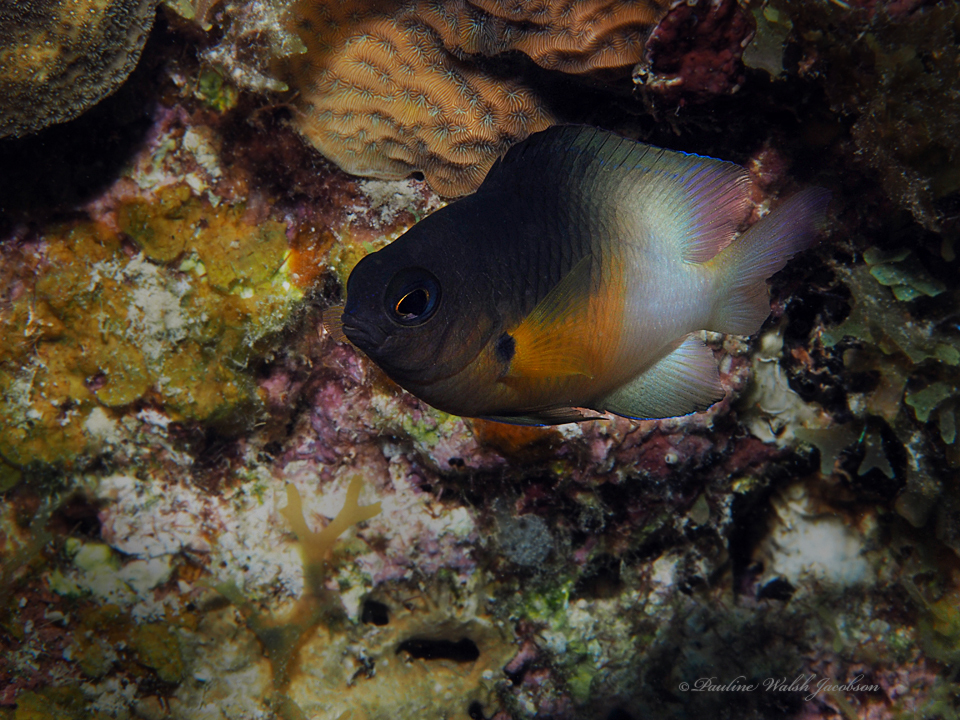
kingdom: Animalia
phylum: Chordata
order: Perciformes
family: Pomacentridae
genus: Stegastes
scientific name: Stegastes partitus
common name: Bicolor damselfish
